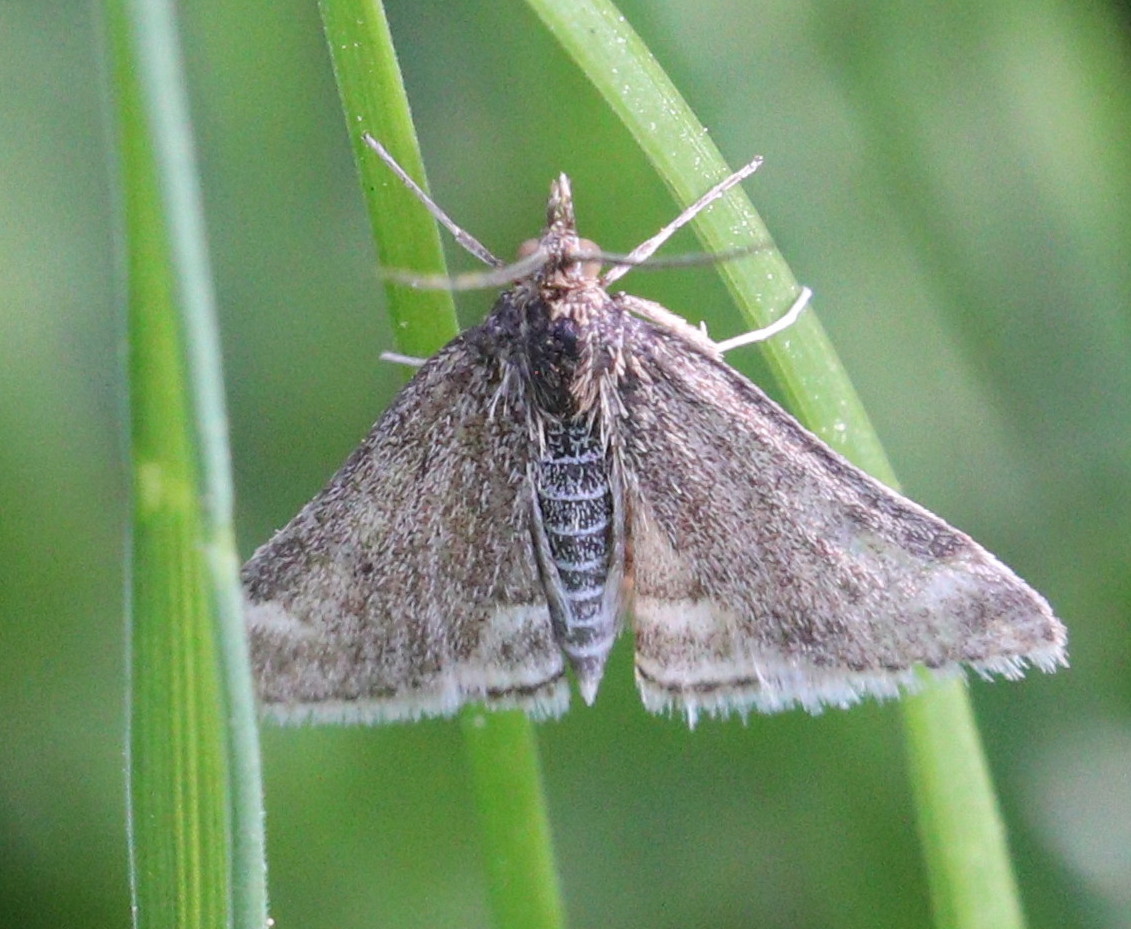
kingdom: Animalia
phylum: Arthropoda
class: Insecta
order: Lepidoptera
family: Crambidae
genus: Pyrausta
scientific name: Pyrausta despicata
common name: Straw-barred pearl
